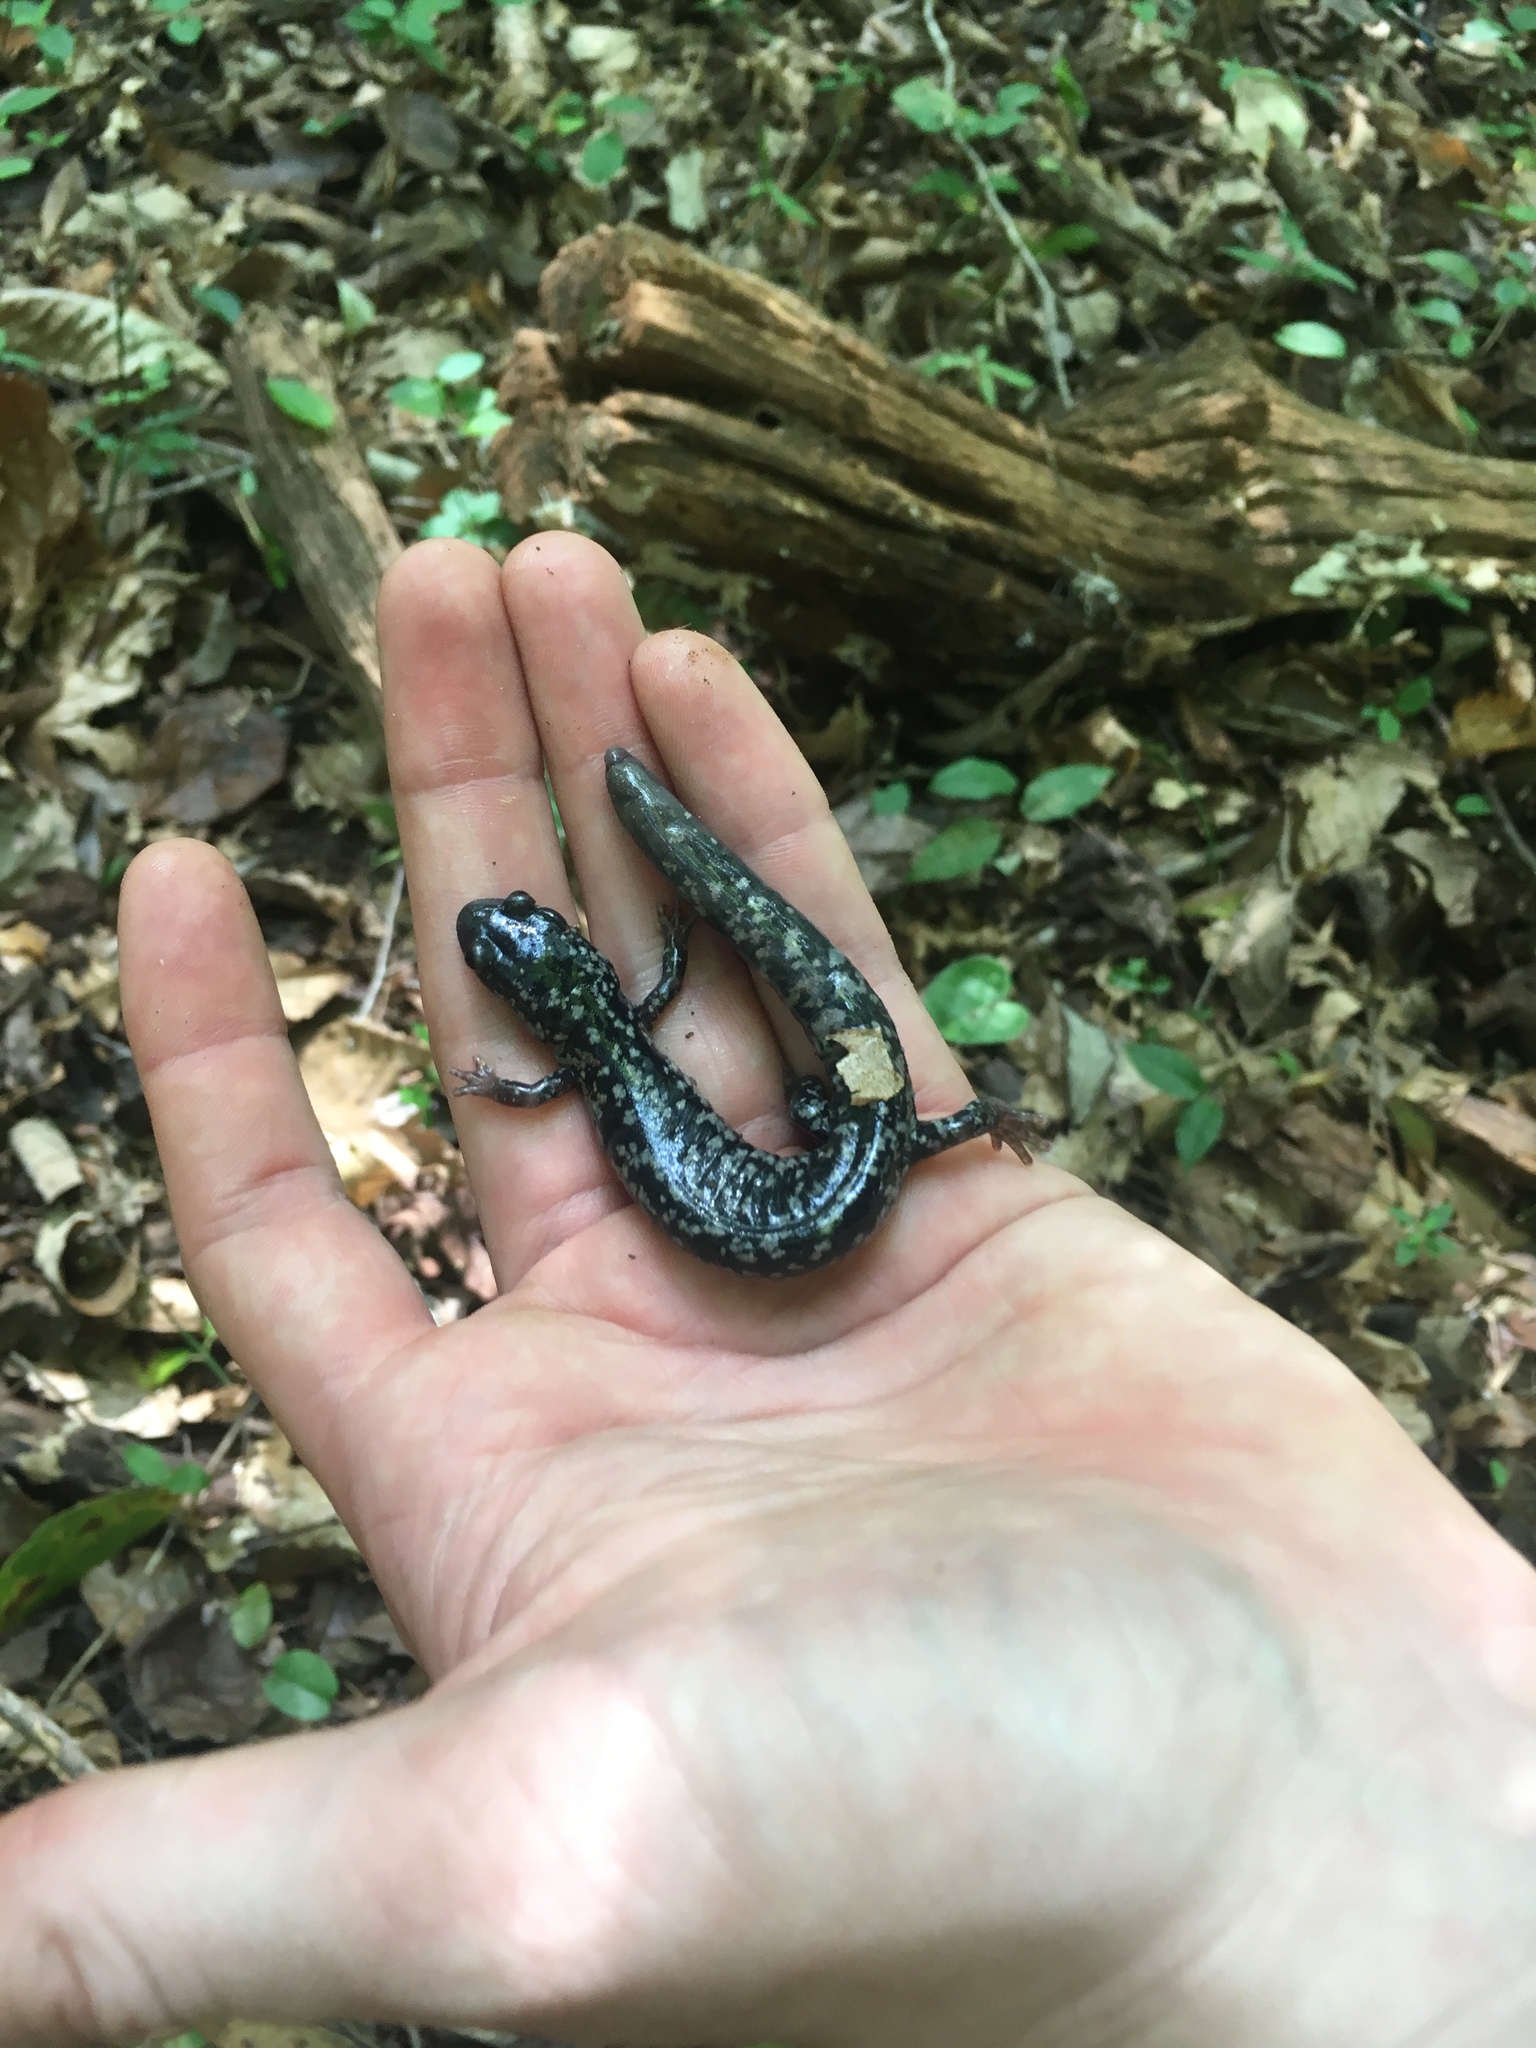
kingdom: Animalia
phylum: Chordata
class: Amphibia
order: Caudata
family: Plethodontidae
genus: Plethodon
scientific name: Plethodon cylindraceus
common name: White-spotted slimy salamander
